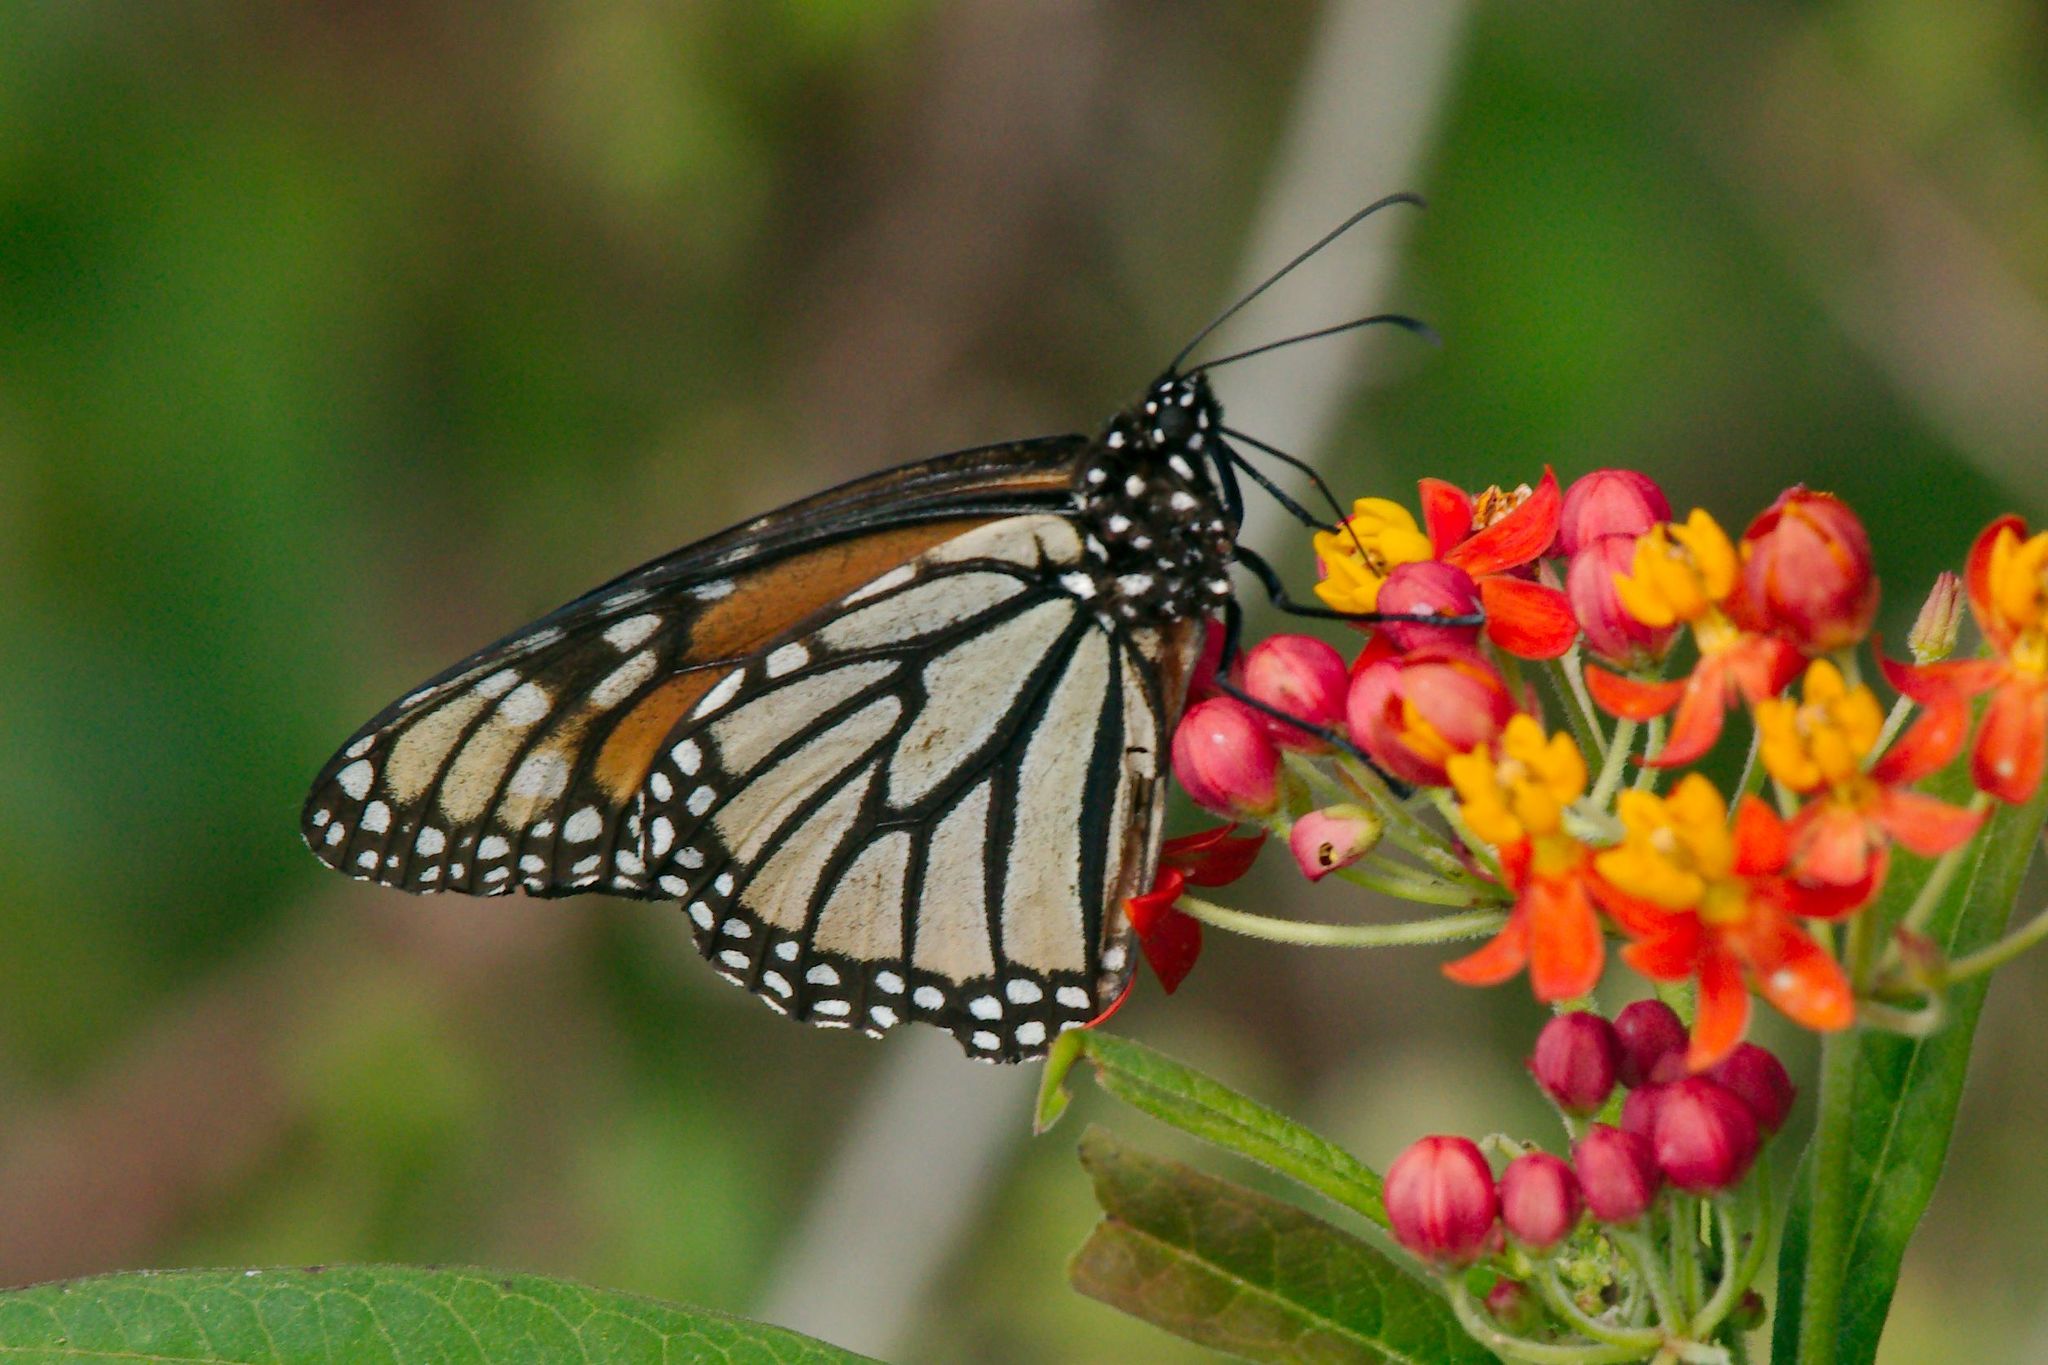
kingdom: Animalia
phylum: Arthropoda
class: Insecta
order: Lepidoptera
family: Nymphalidae
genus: Danaus
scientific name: Danaus plexippus
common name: Monarch
